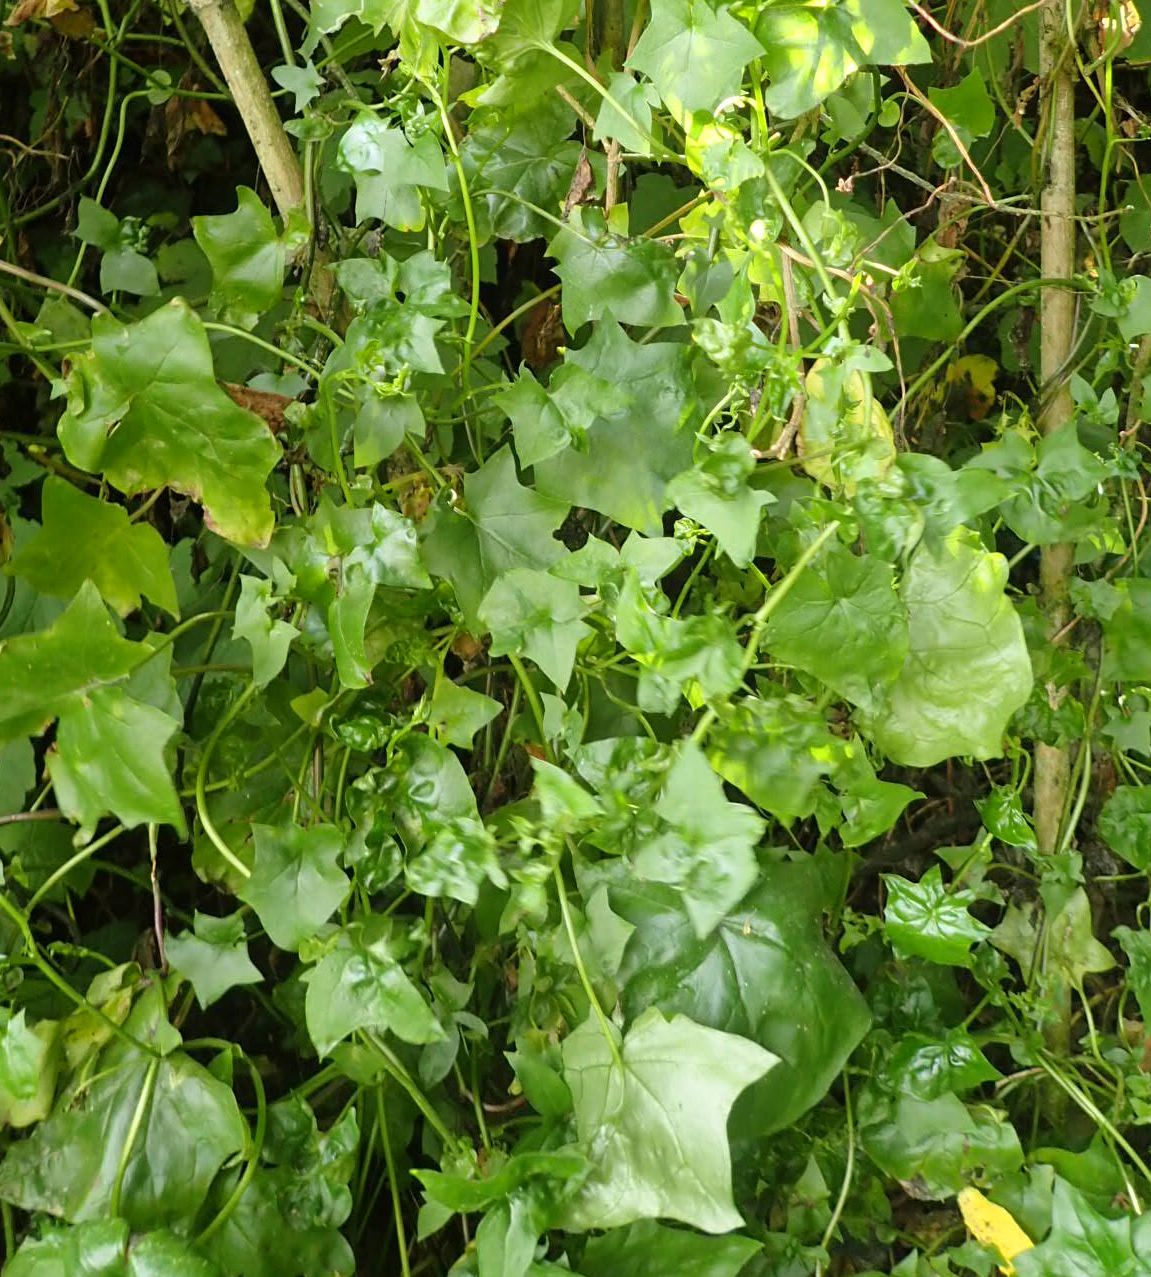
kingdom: Plantae
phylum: Tracheophyta
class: Magnoliopsida
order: Asterales
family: Asteraceae
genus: Delairea
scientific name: Delairea odorata
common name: Cape-ivy
